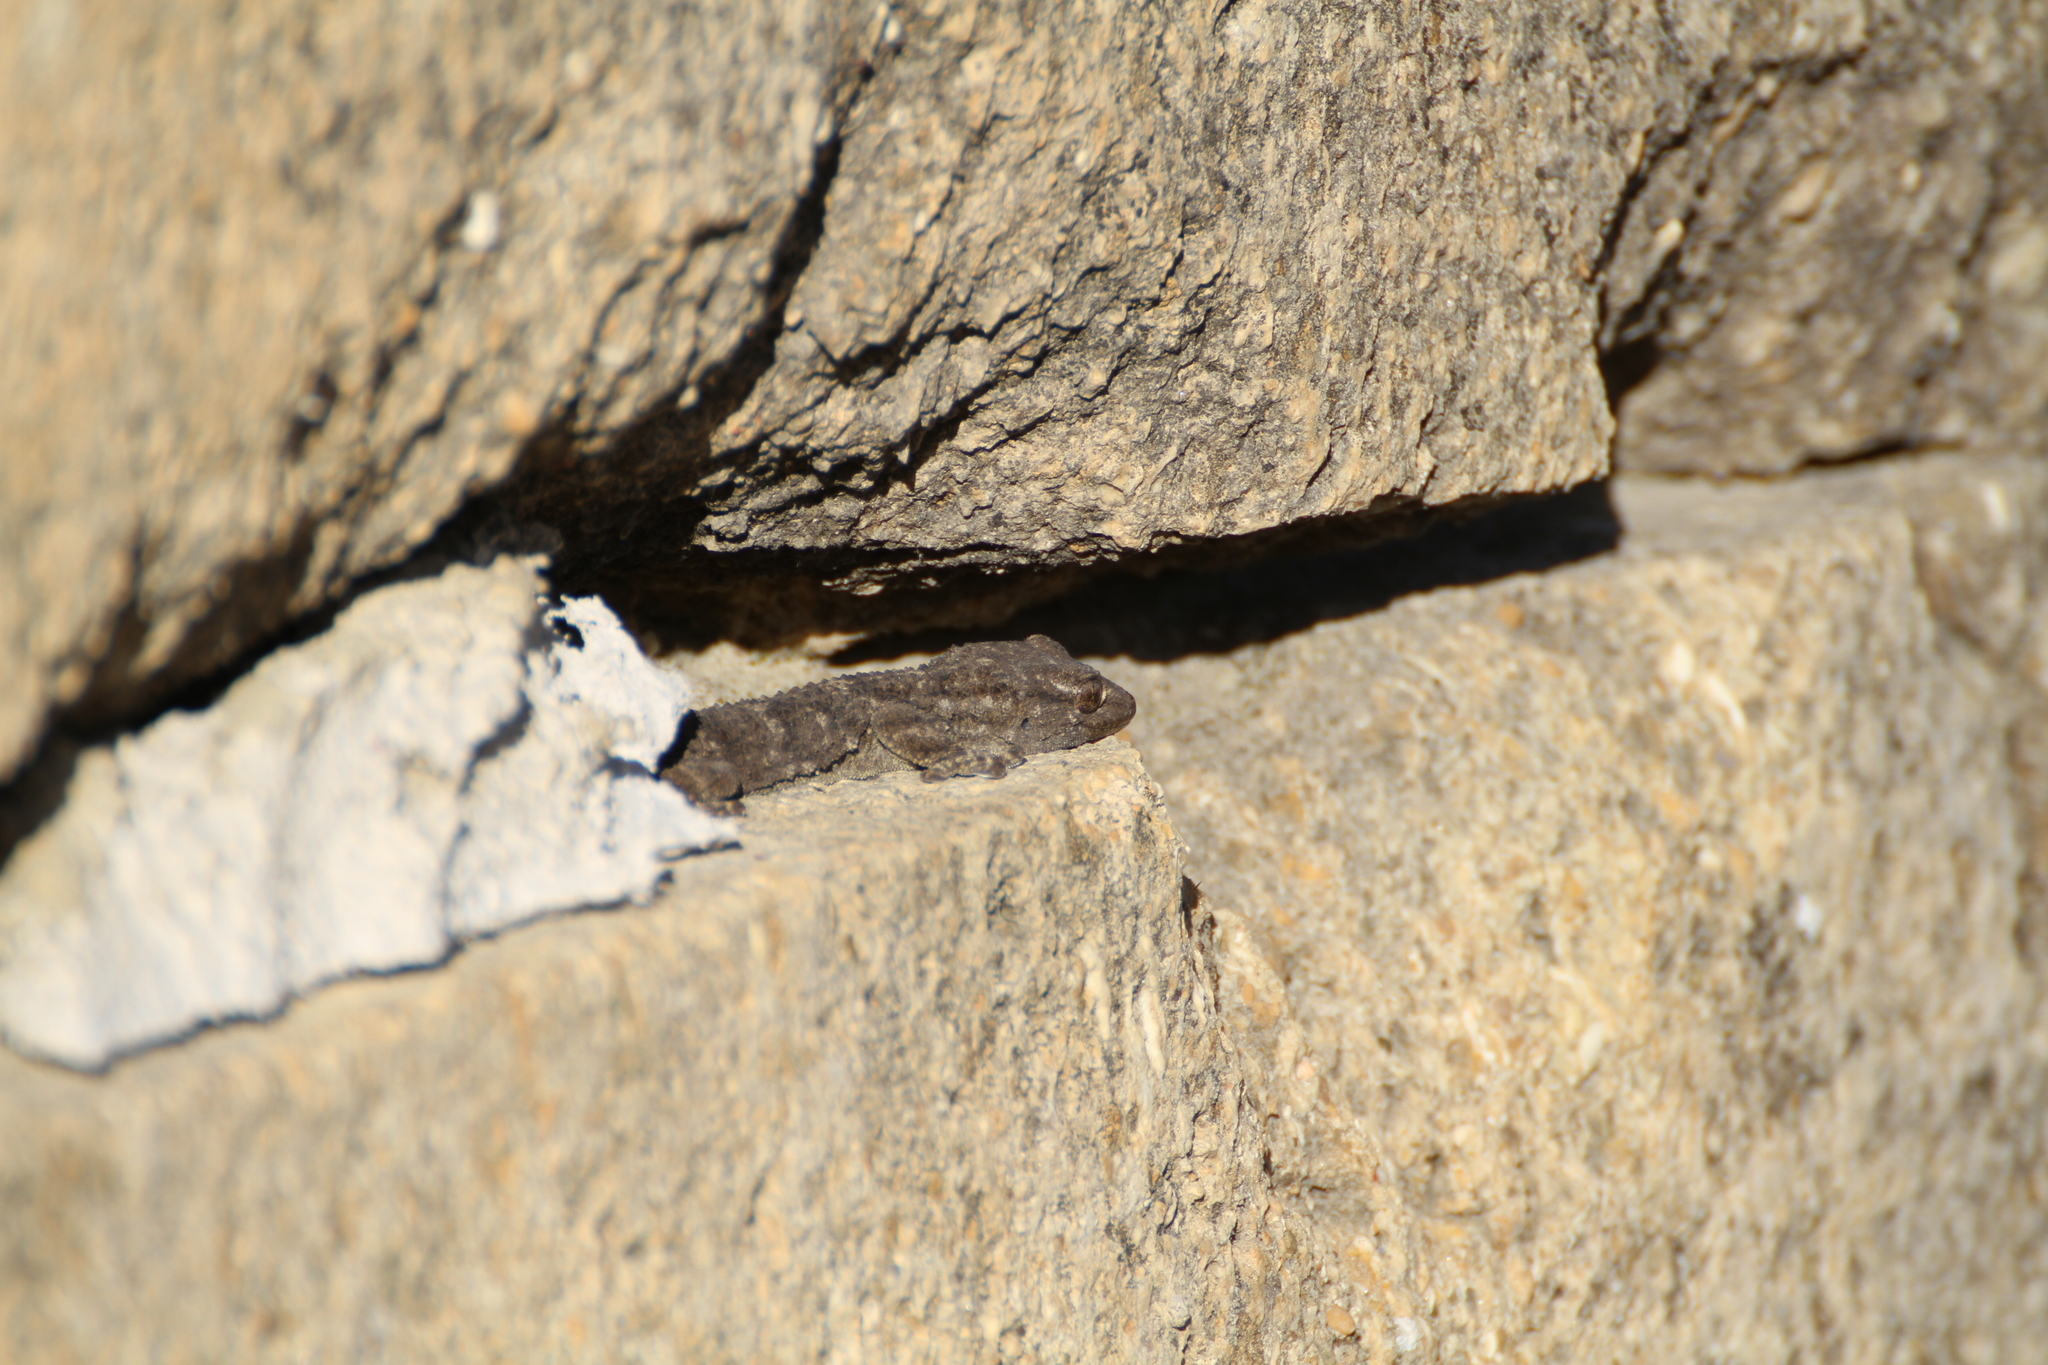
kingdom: Animalia
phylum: Chordata
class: Squamata
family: Phyllodactylidae
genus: Tarentola
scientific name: Tarentola mauritanica
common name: Moorish gecko
